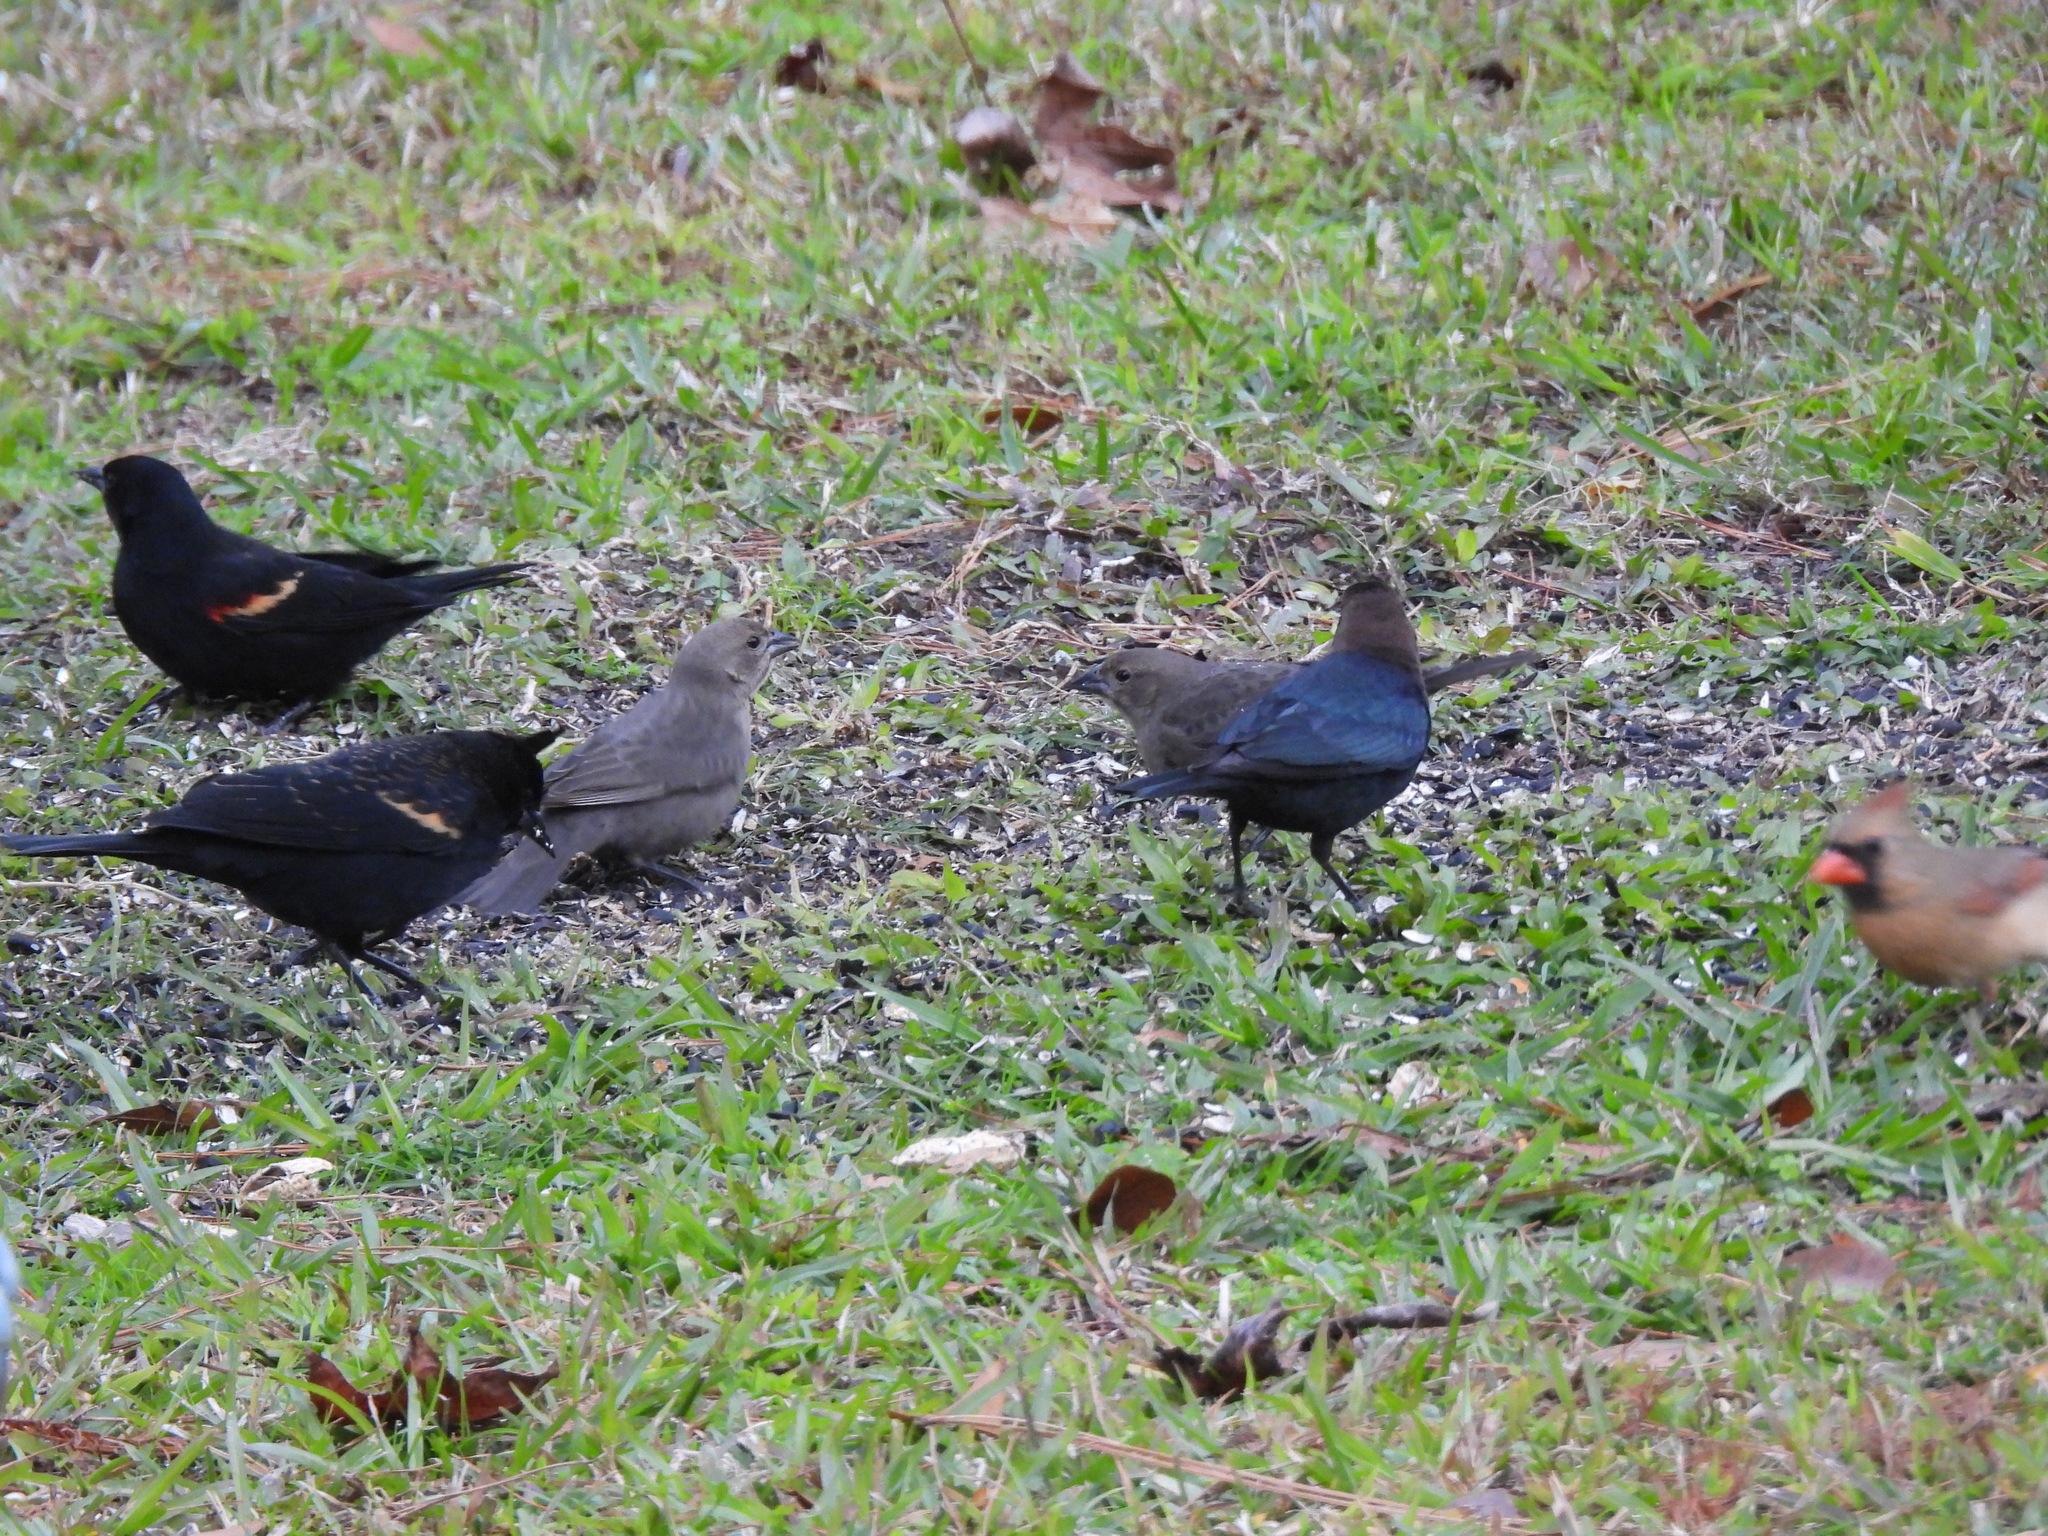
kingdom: Animalia
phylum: Chordata
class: Aves
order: Passeriformes
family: Icteridae
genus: Molothrus
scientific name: Molothrus ater
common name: Brown-headed cowbird
